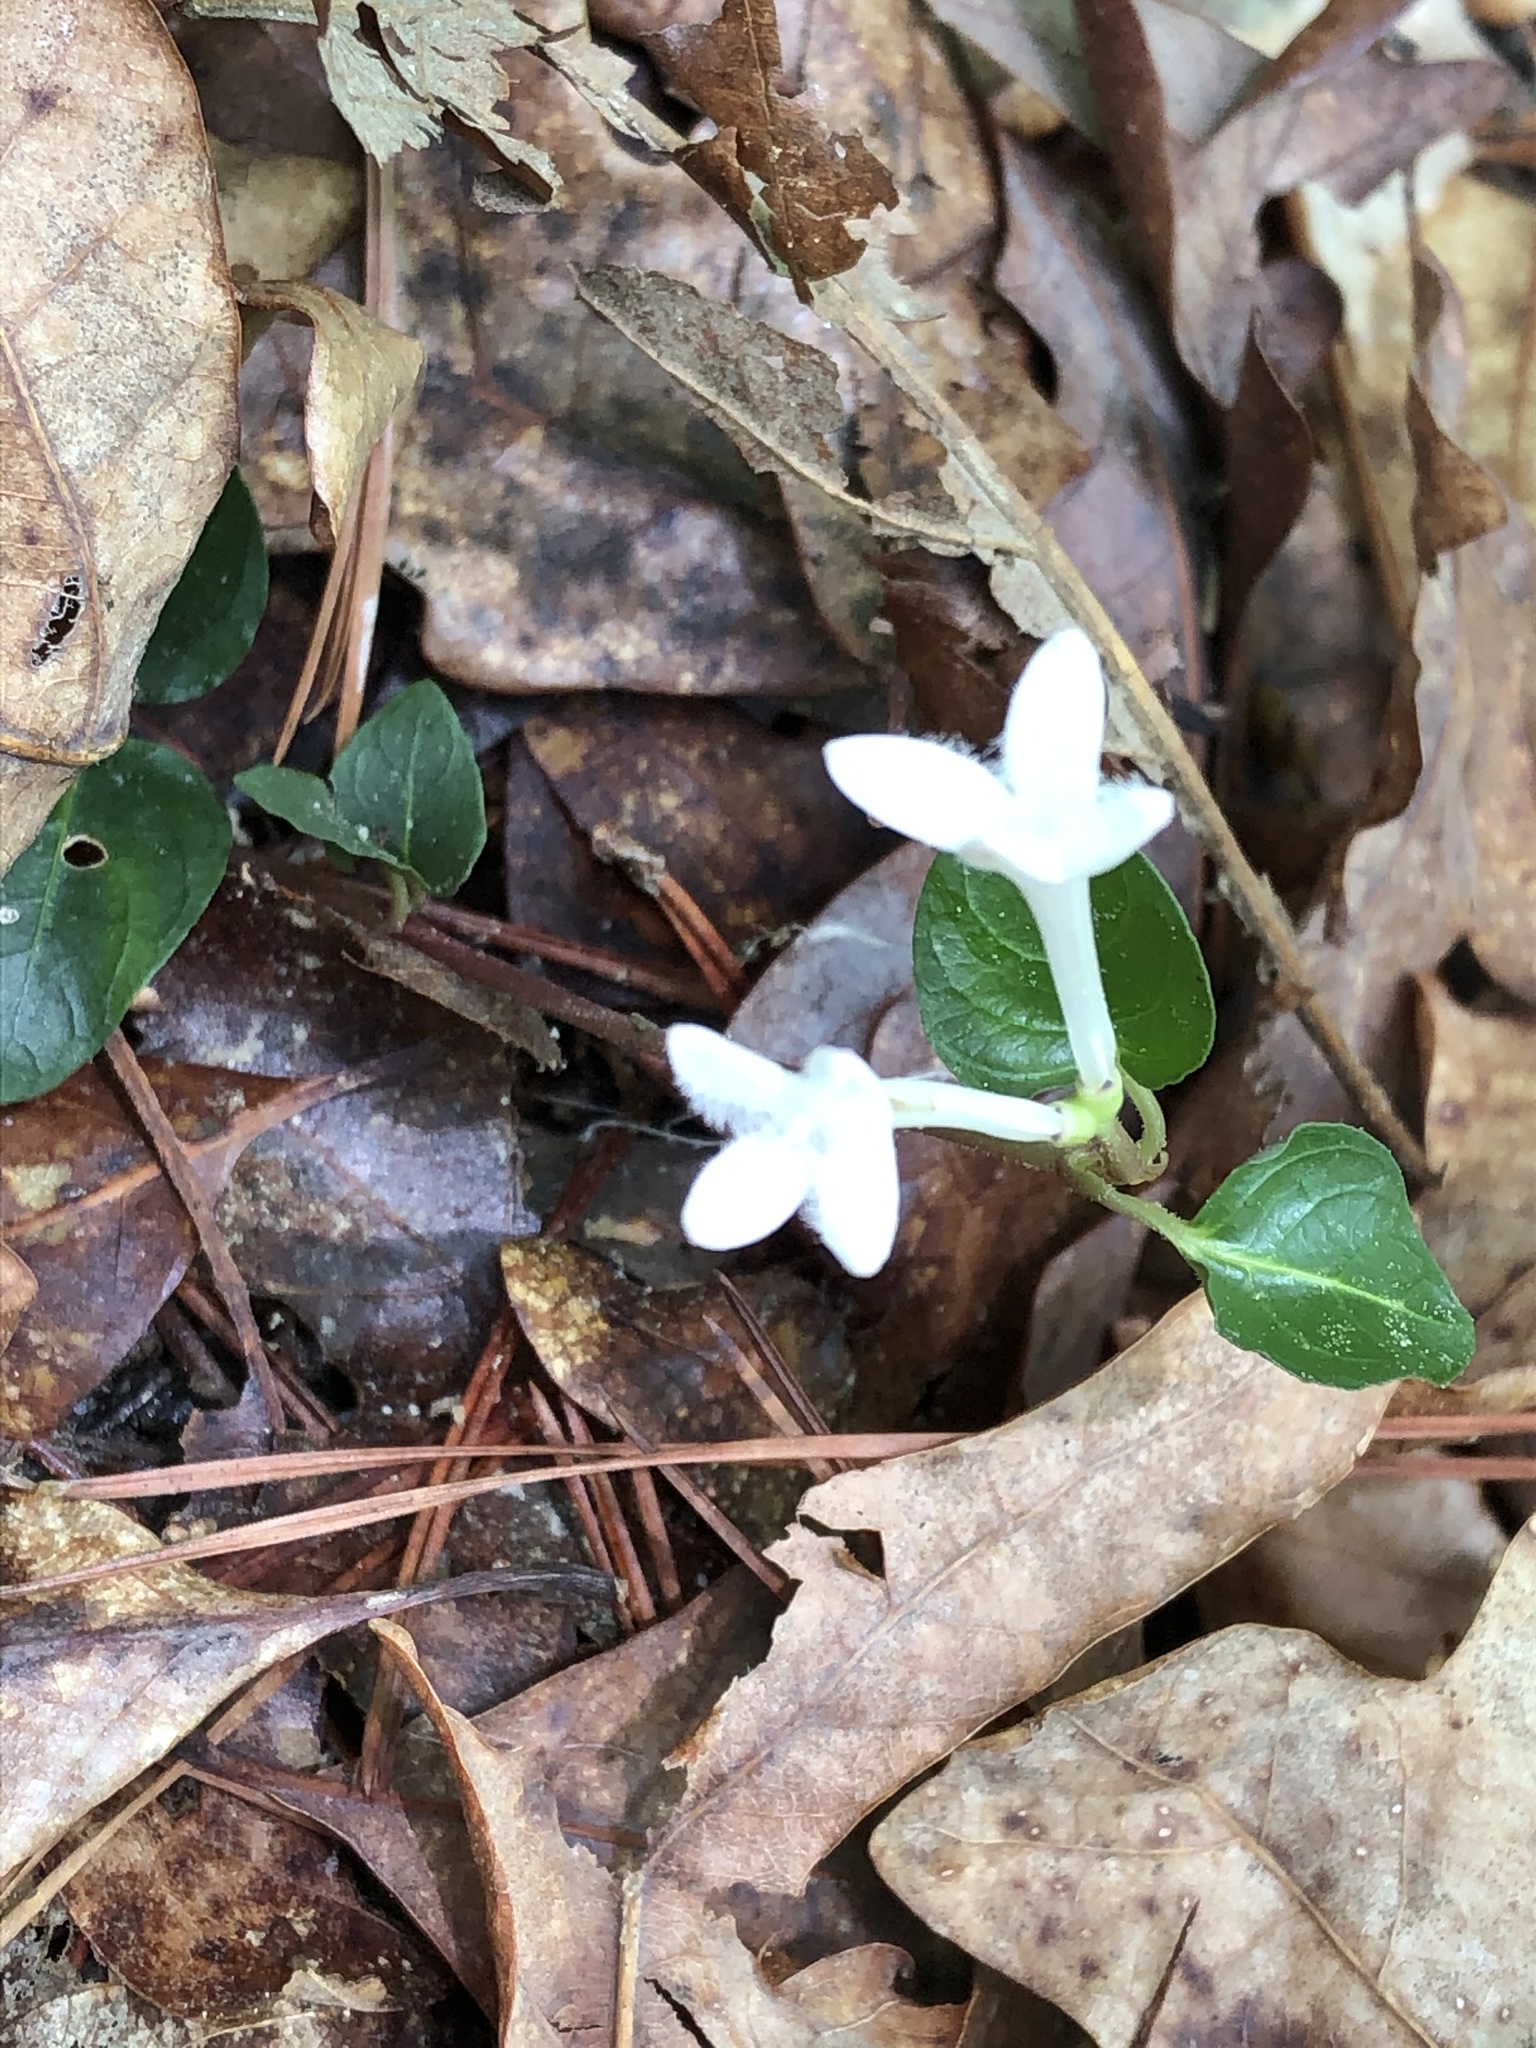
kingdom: Plantae
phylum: Tracheophyta
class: Magnoliopsida
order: Gentianales
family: Rubiaceae
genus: Mitchella
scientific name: Mitchella repens
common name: Partridge-berry
